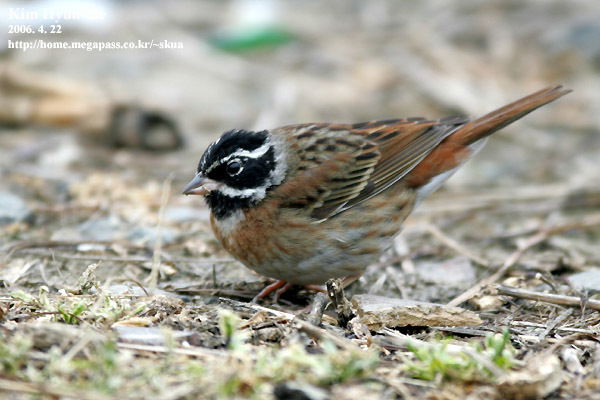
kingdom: Animalia
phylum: Chordata
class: Aves
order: Passeriformes
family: Emberizidae
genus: Emberiza
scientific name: Emberiza tristrami
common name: Tristram's bunting
